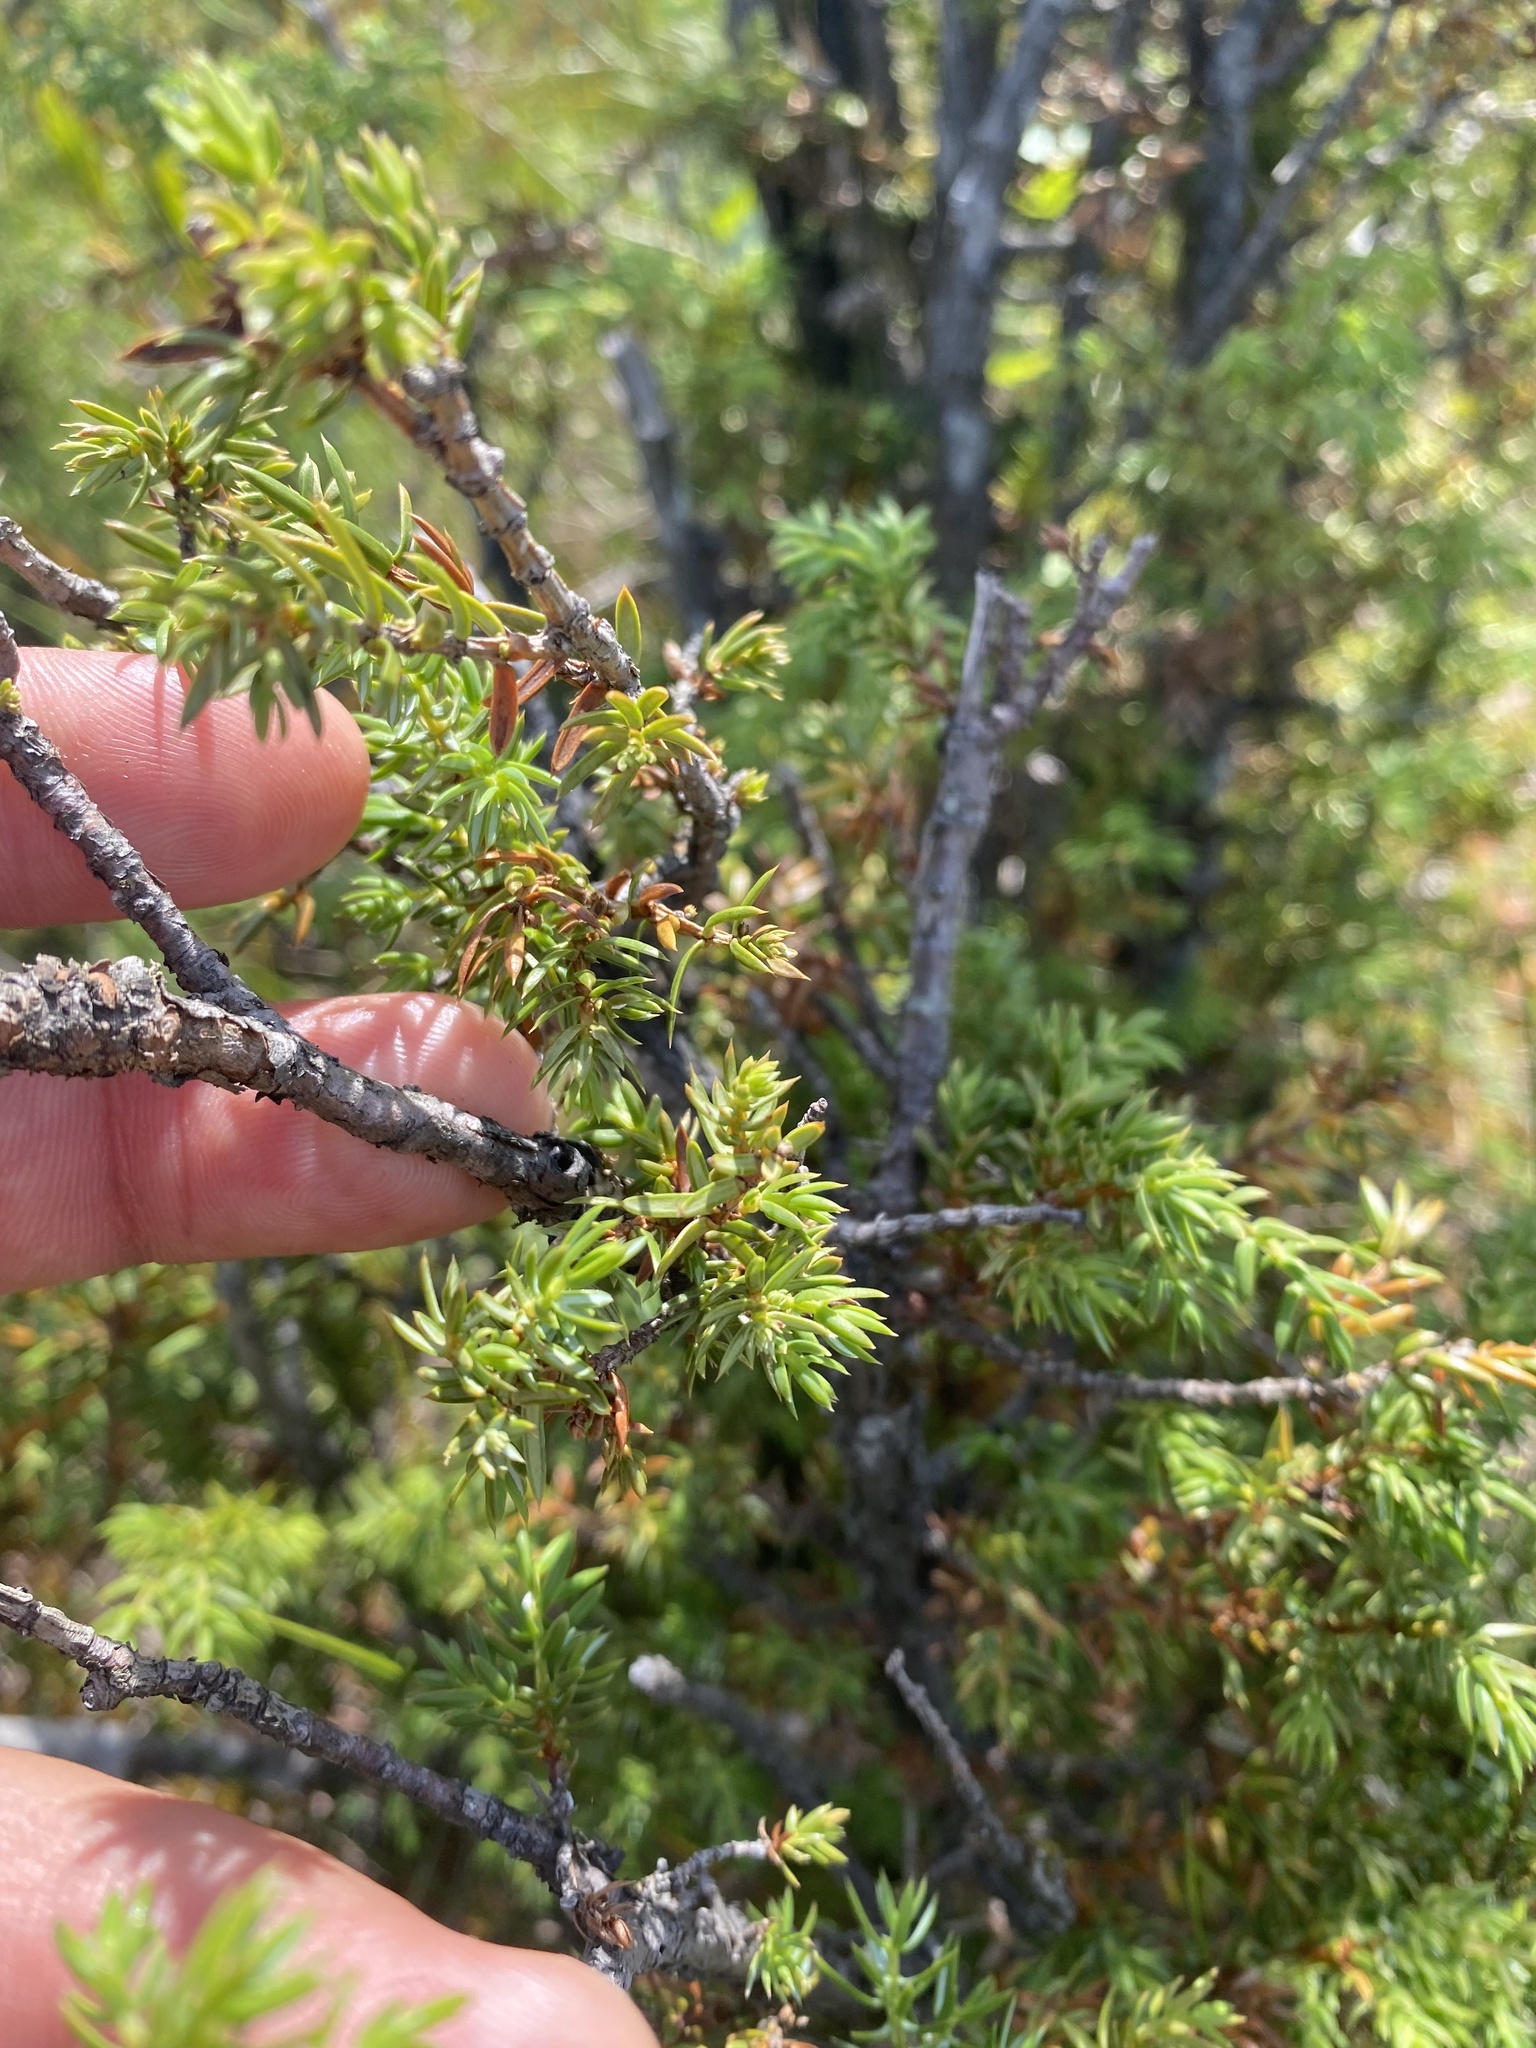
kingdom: Plantae
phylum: Tracheophyta
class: Pinopsida
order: Pinales
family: Cupressaceae
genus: Juniperus
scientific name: Juniperus communis
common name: Common juniper
